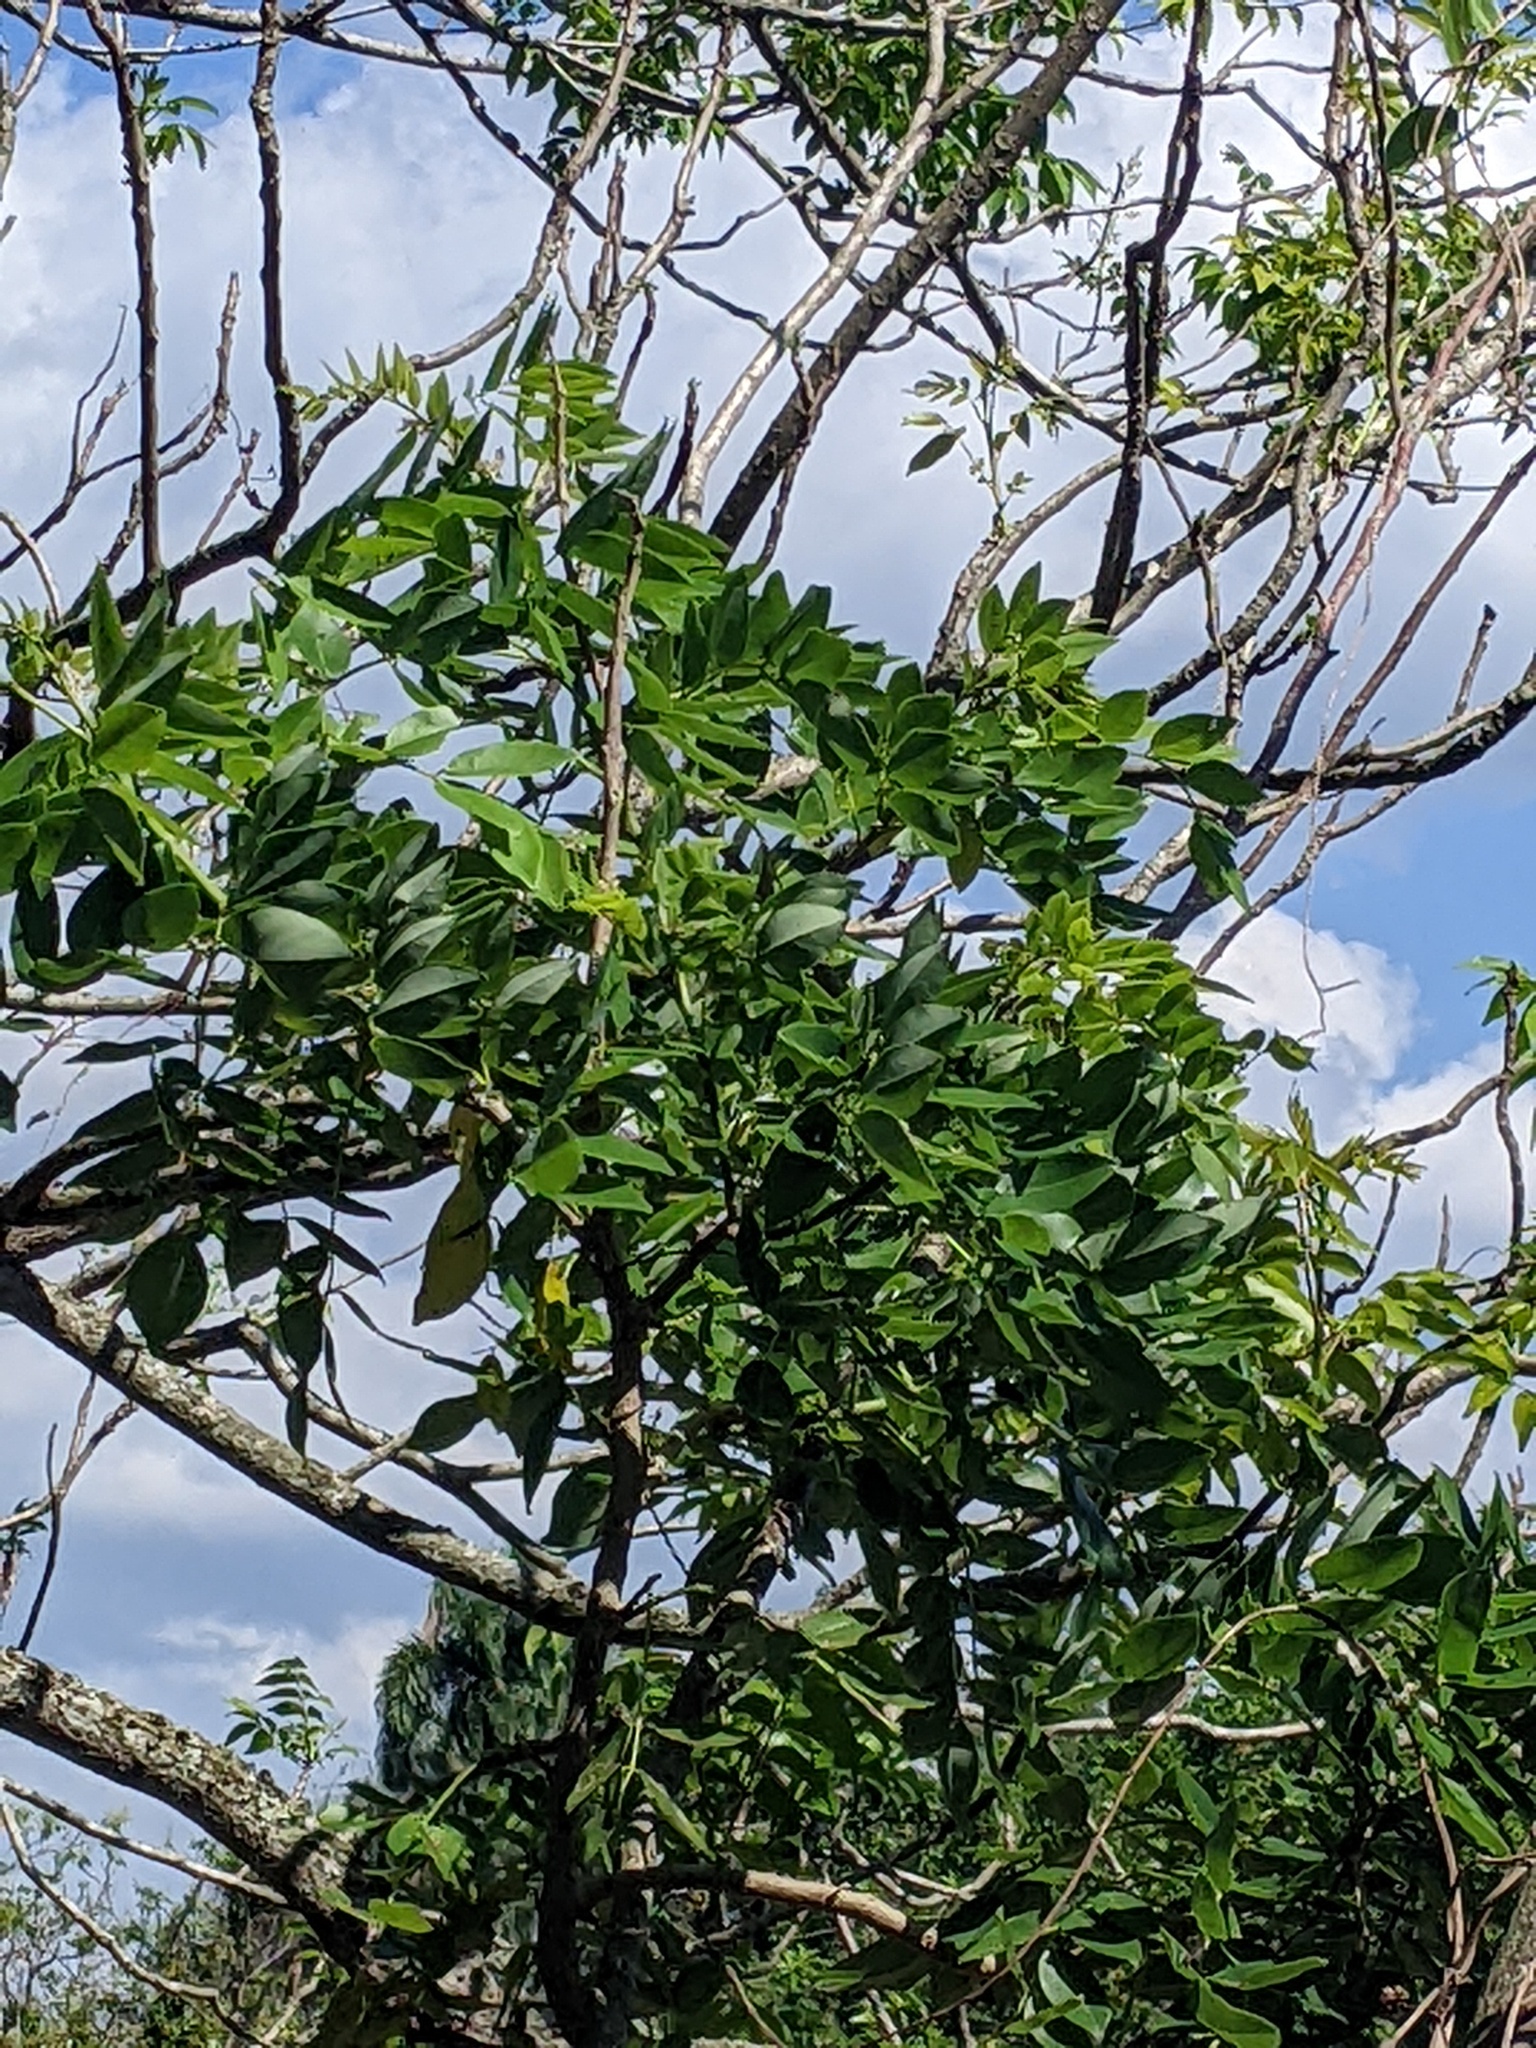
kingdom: Plantae
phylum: Tracheophyta
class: Magnoliopsida
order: Fabales
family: Fabaceae
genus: Gliricidia
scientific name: Gliricidia sepium
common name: Quickstick
